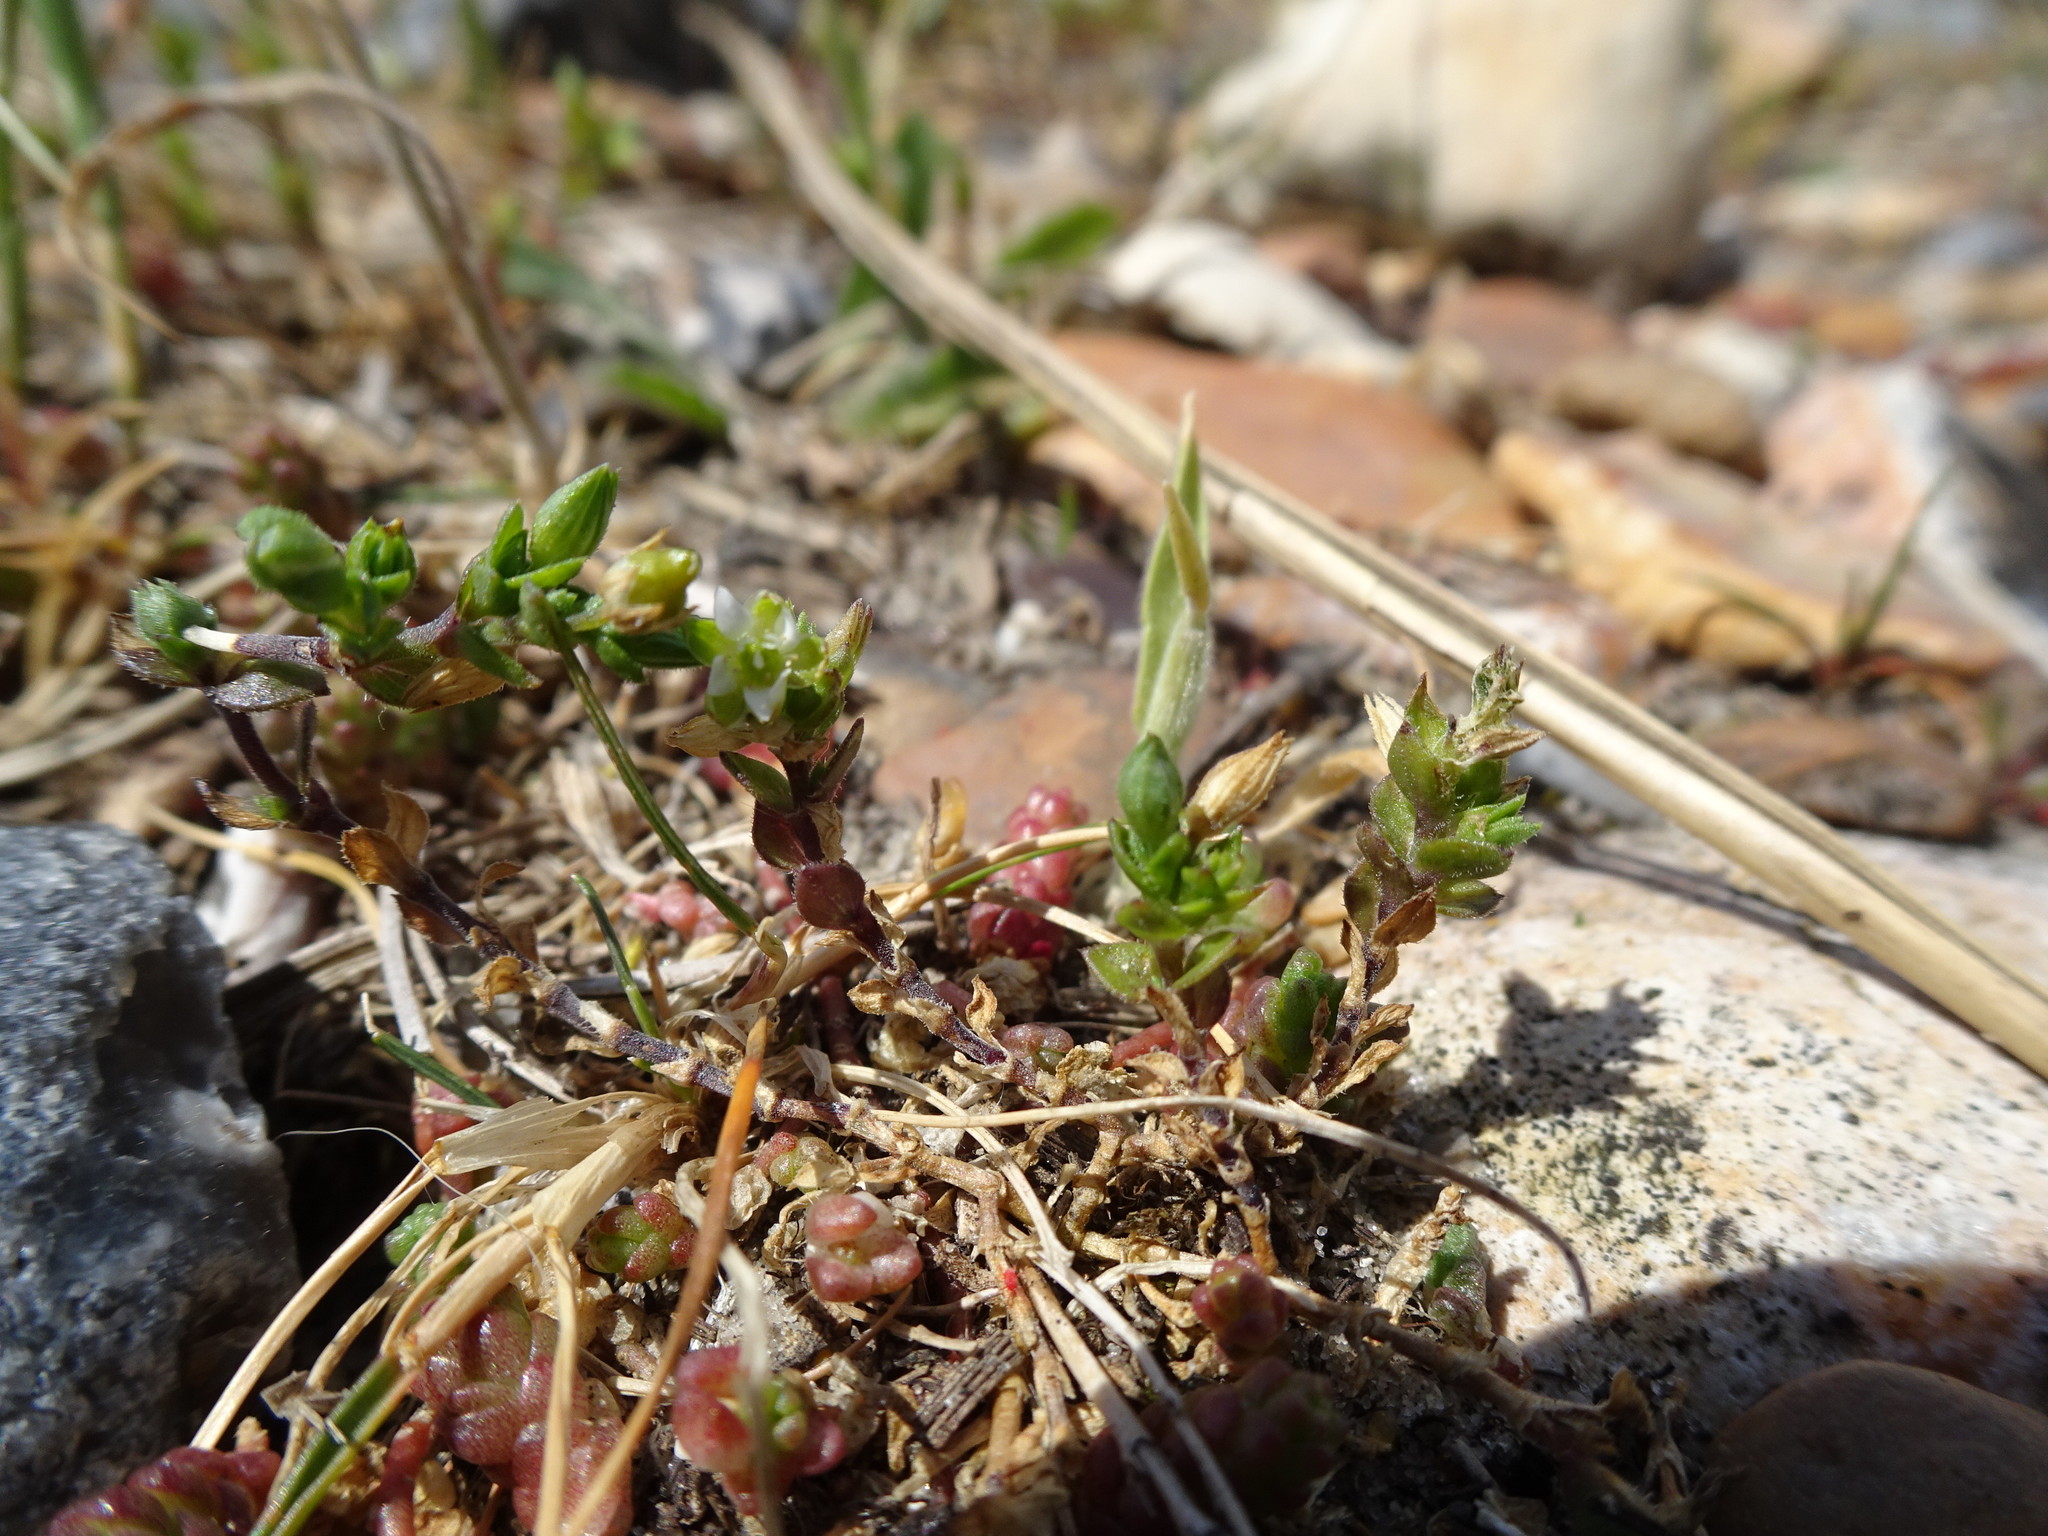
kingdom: Plantae
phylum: Tracheophyta
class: Magnoliopsida
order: Caryophyllales
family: Caryophyllaceae
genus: Arenaria
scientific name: Arenaria serpyllifolia
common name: Thyme-leaved sandwort
